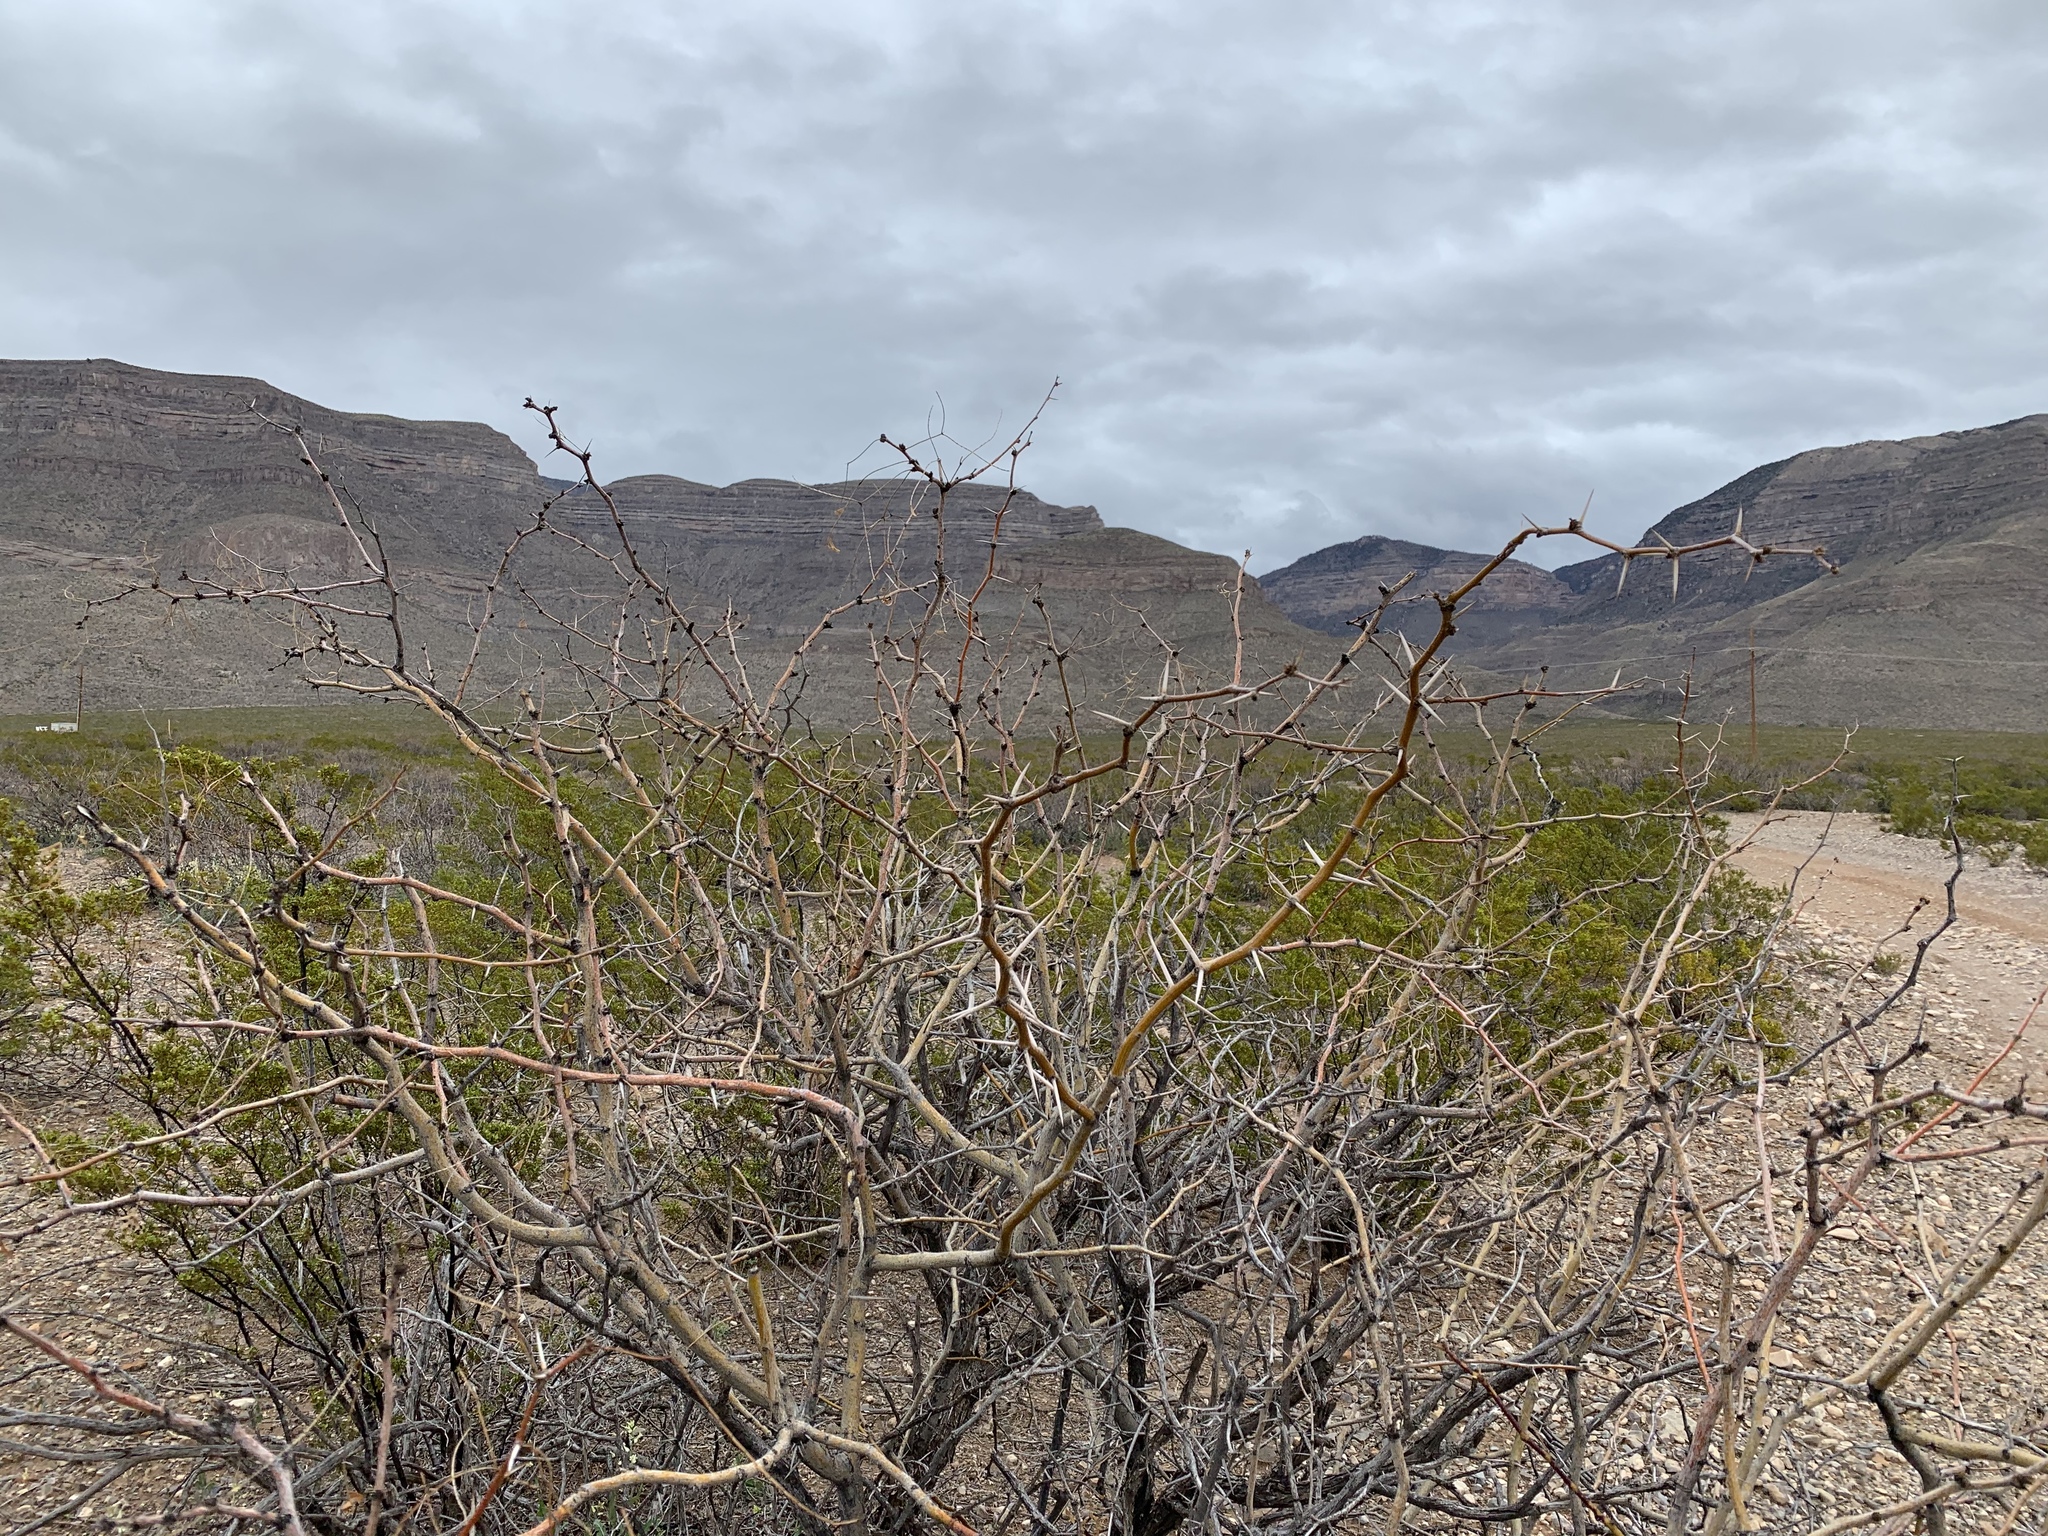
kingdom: Plantae
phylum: Tracheophyta
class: Magnoliopsida
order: Fabales
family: Fabaceae
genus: Prosopis
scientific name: Prosopis glandulosa
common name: Honey mesquite
